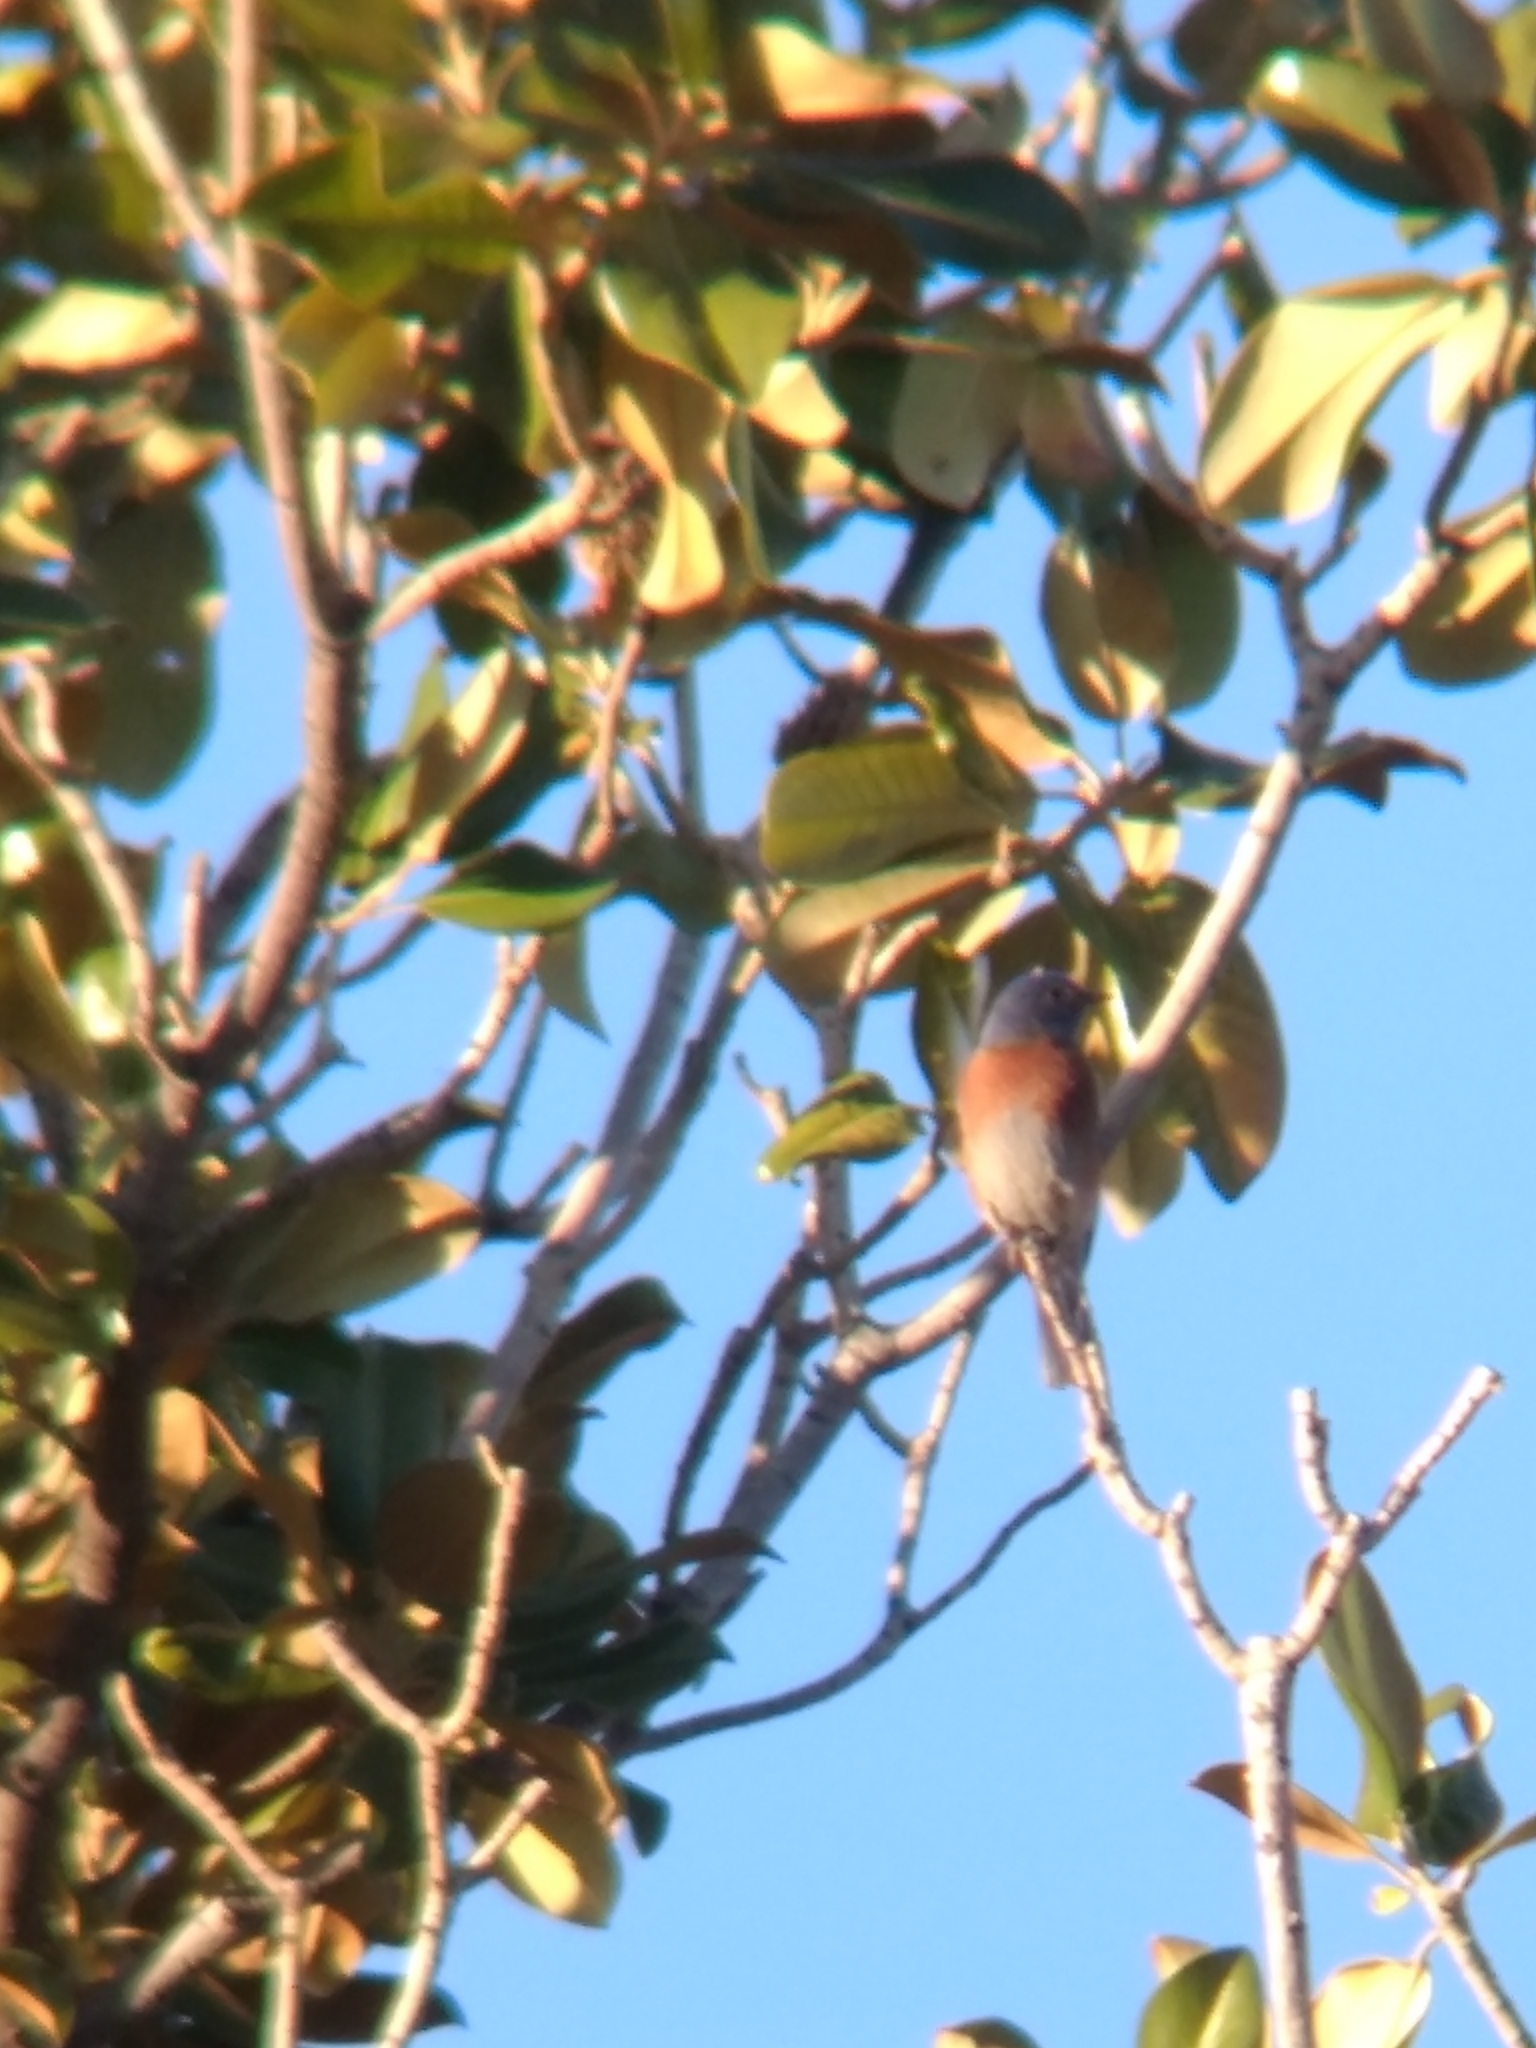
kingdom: Animalia
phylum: Chordata
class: Aves
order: Passeriformes
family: Turdidae
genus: Sialia
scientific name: Sialia mexicana
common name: Western bluebird
